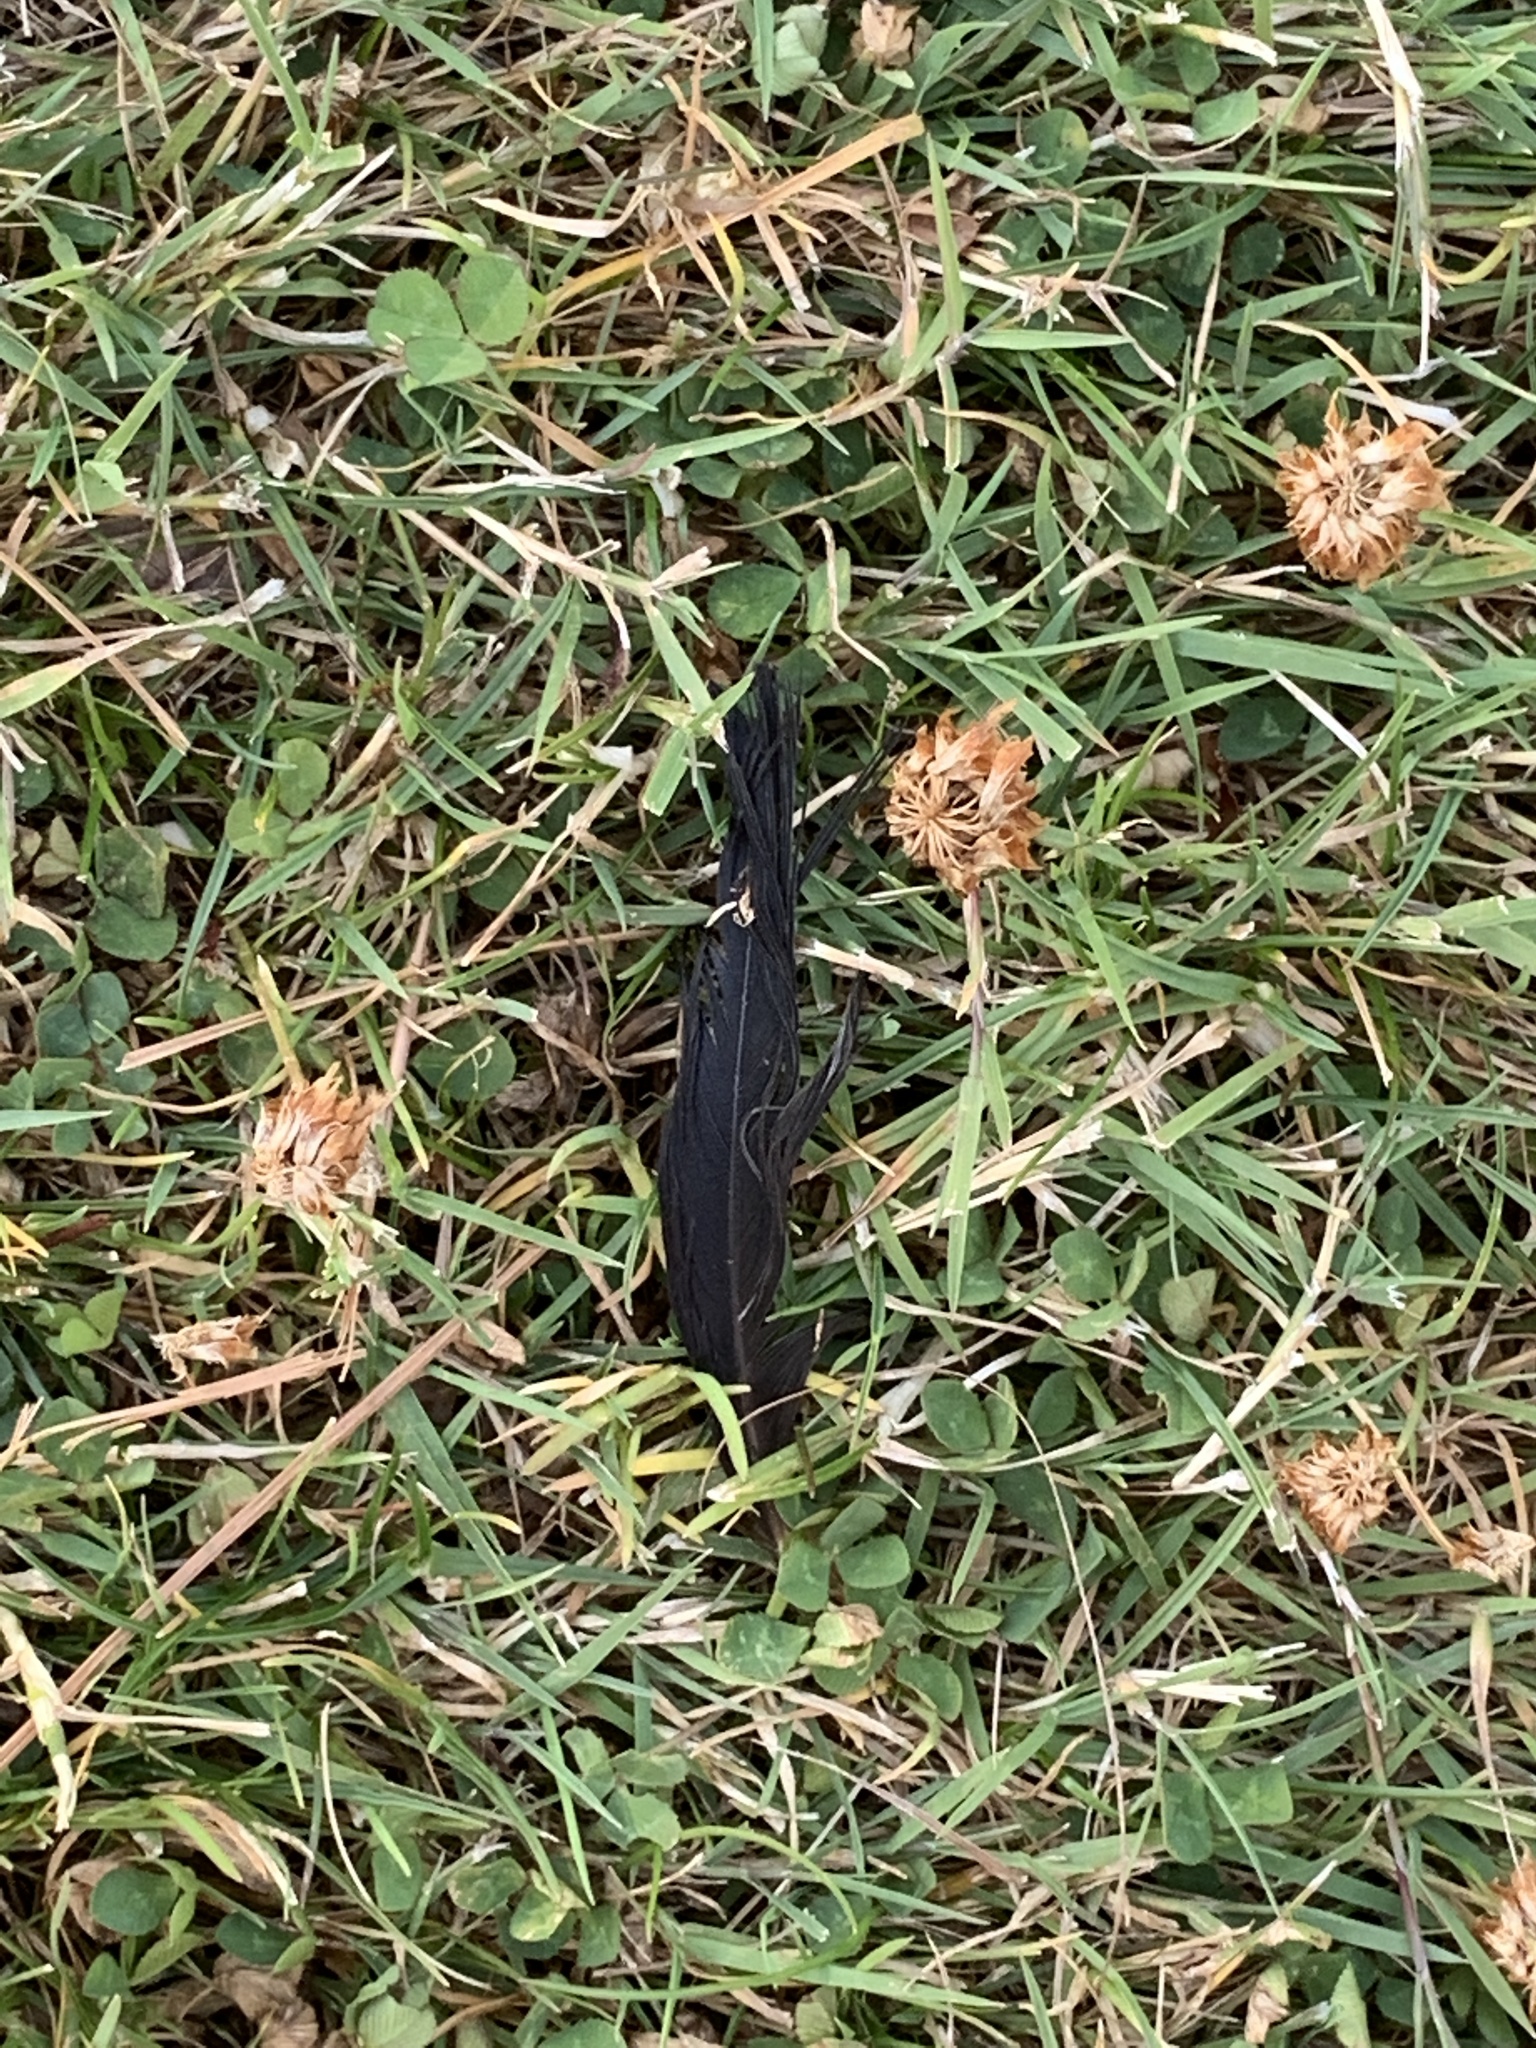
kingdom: Animalia
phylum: Chordata
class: Aves
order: Passeriformes
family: Corvidae
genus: Corvus
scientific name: Corvus brachyrhynchos
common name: American crow
